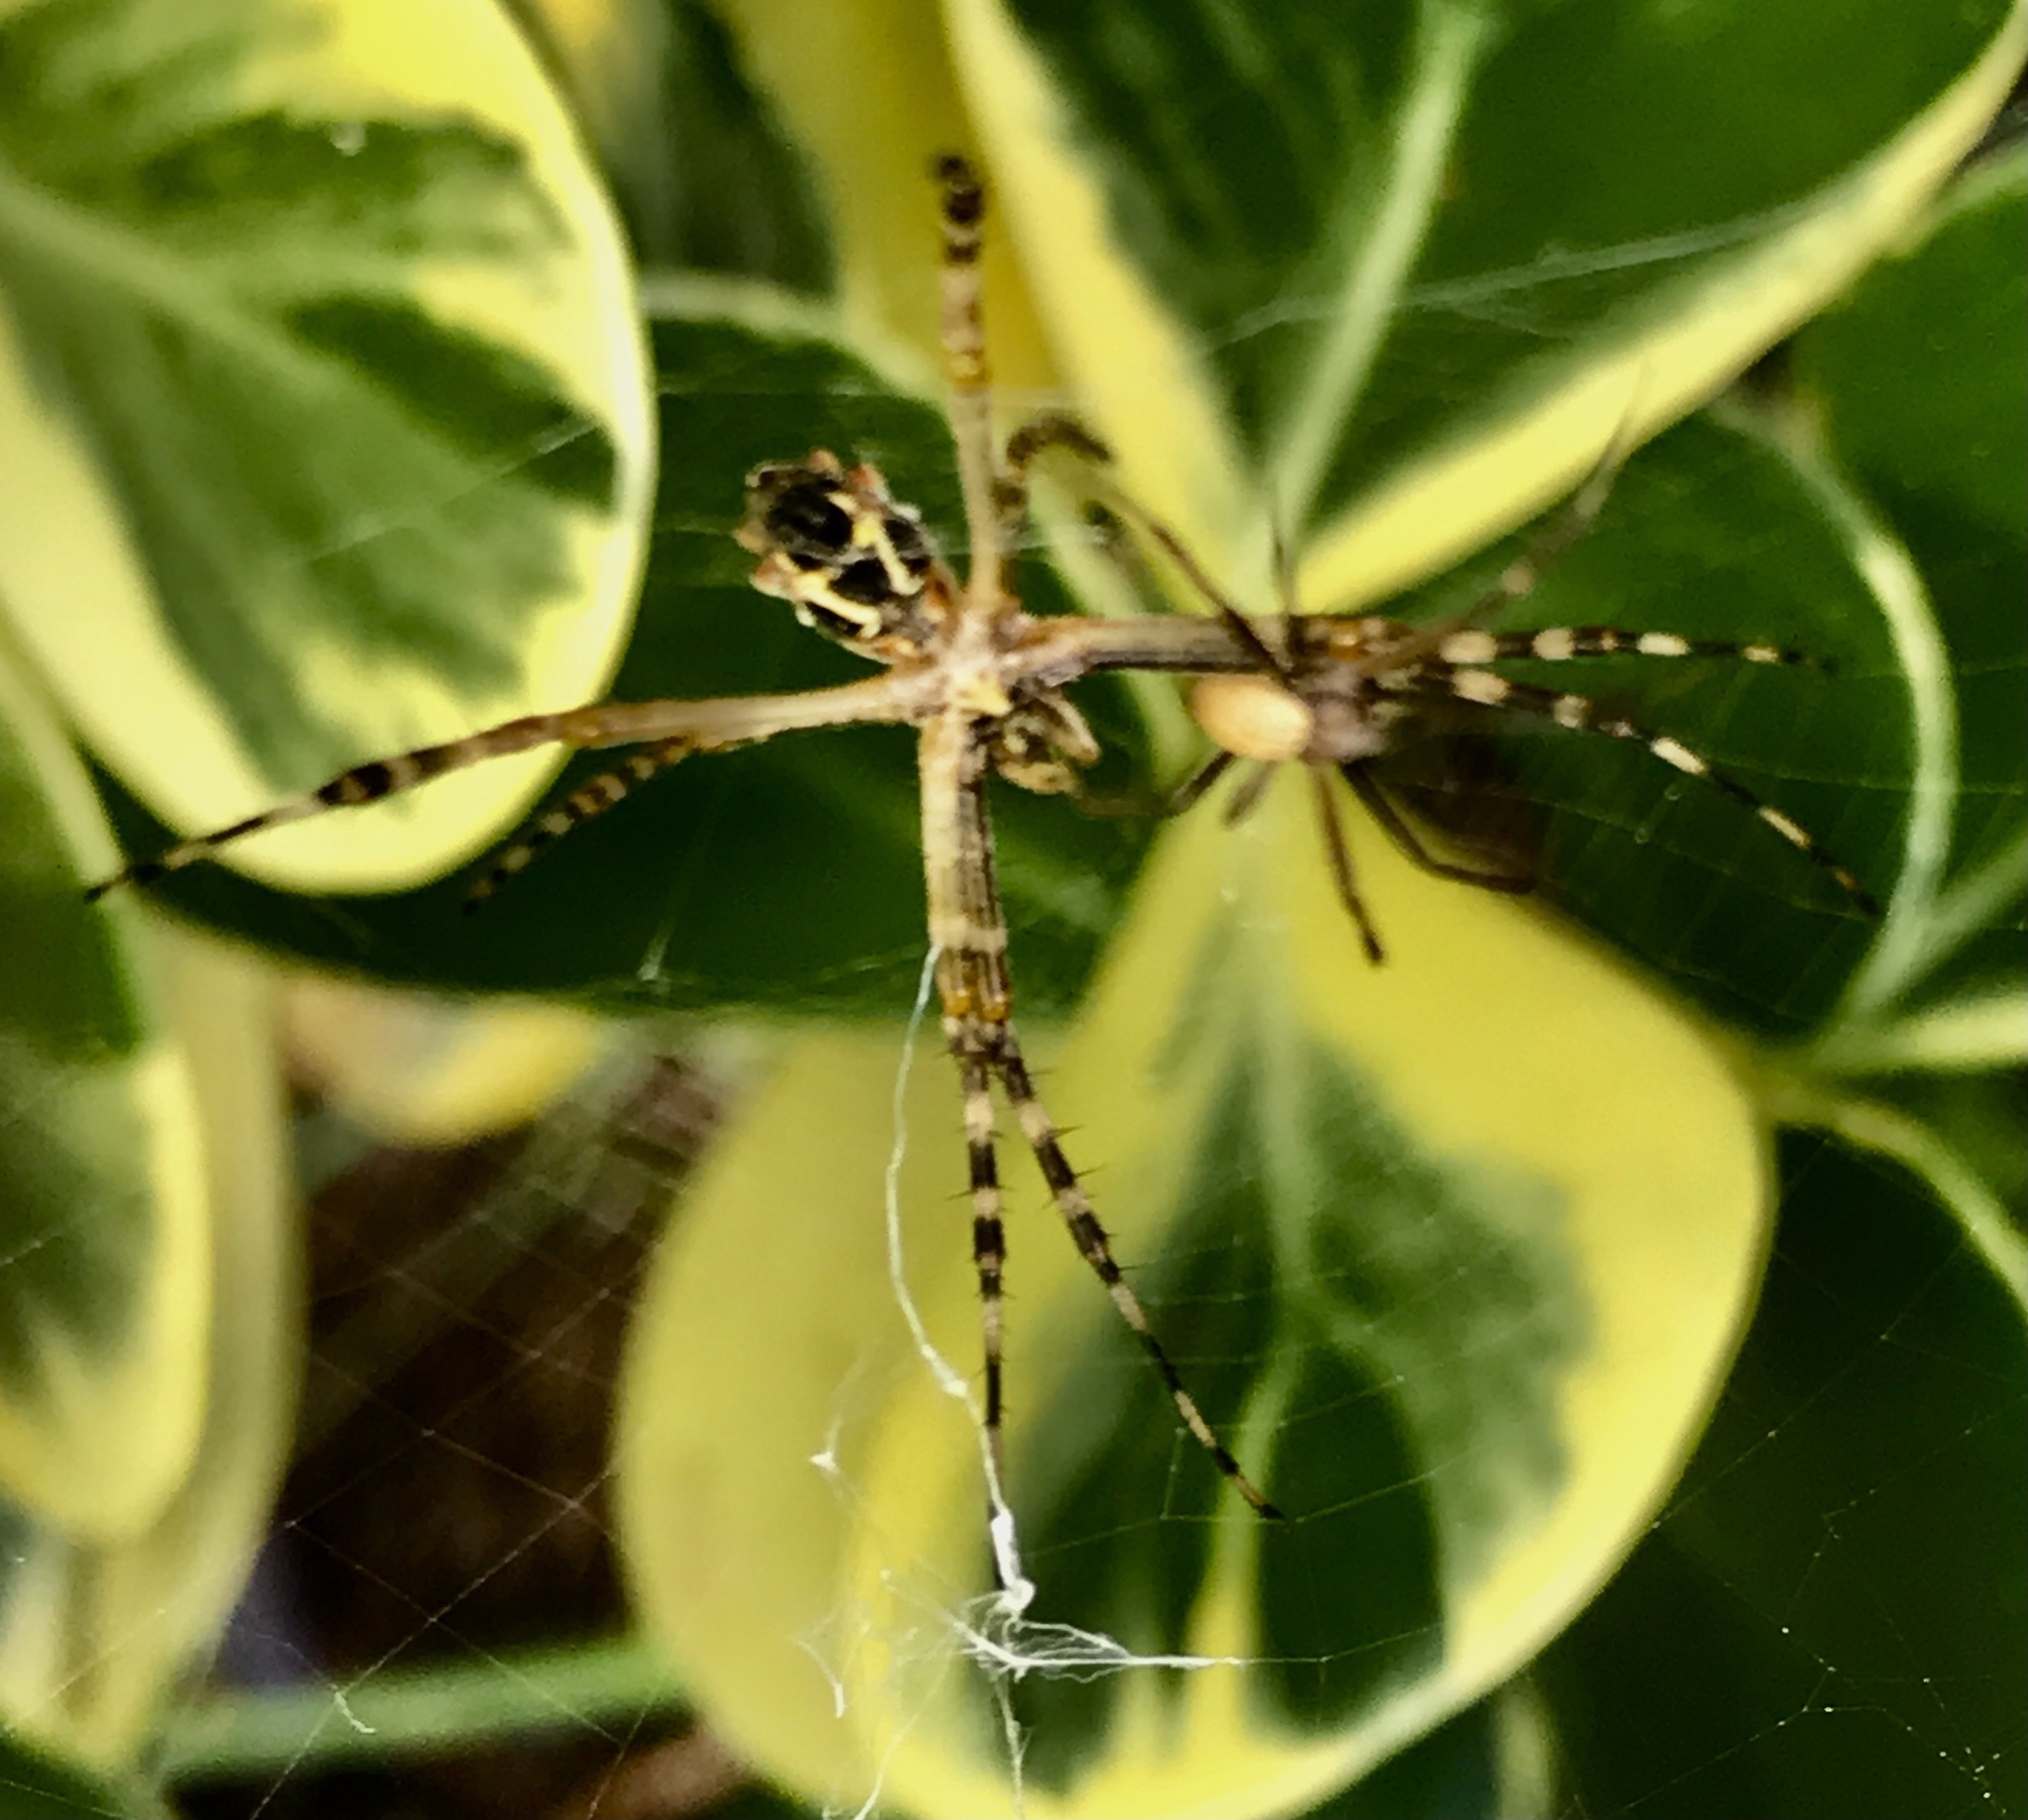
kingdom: Animalia
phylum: Arthropoda
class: Arachnida
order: Araneae
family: Araneidae
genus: Argiope
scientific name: Argiope argentata
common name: Orb weavers
